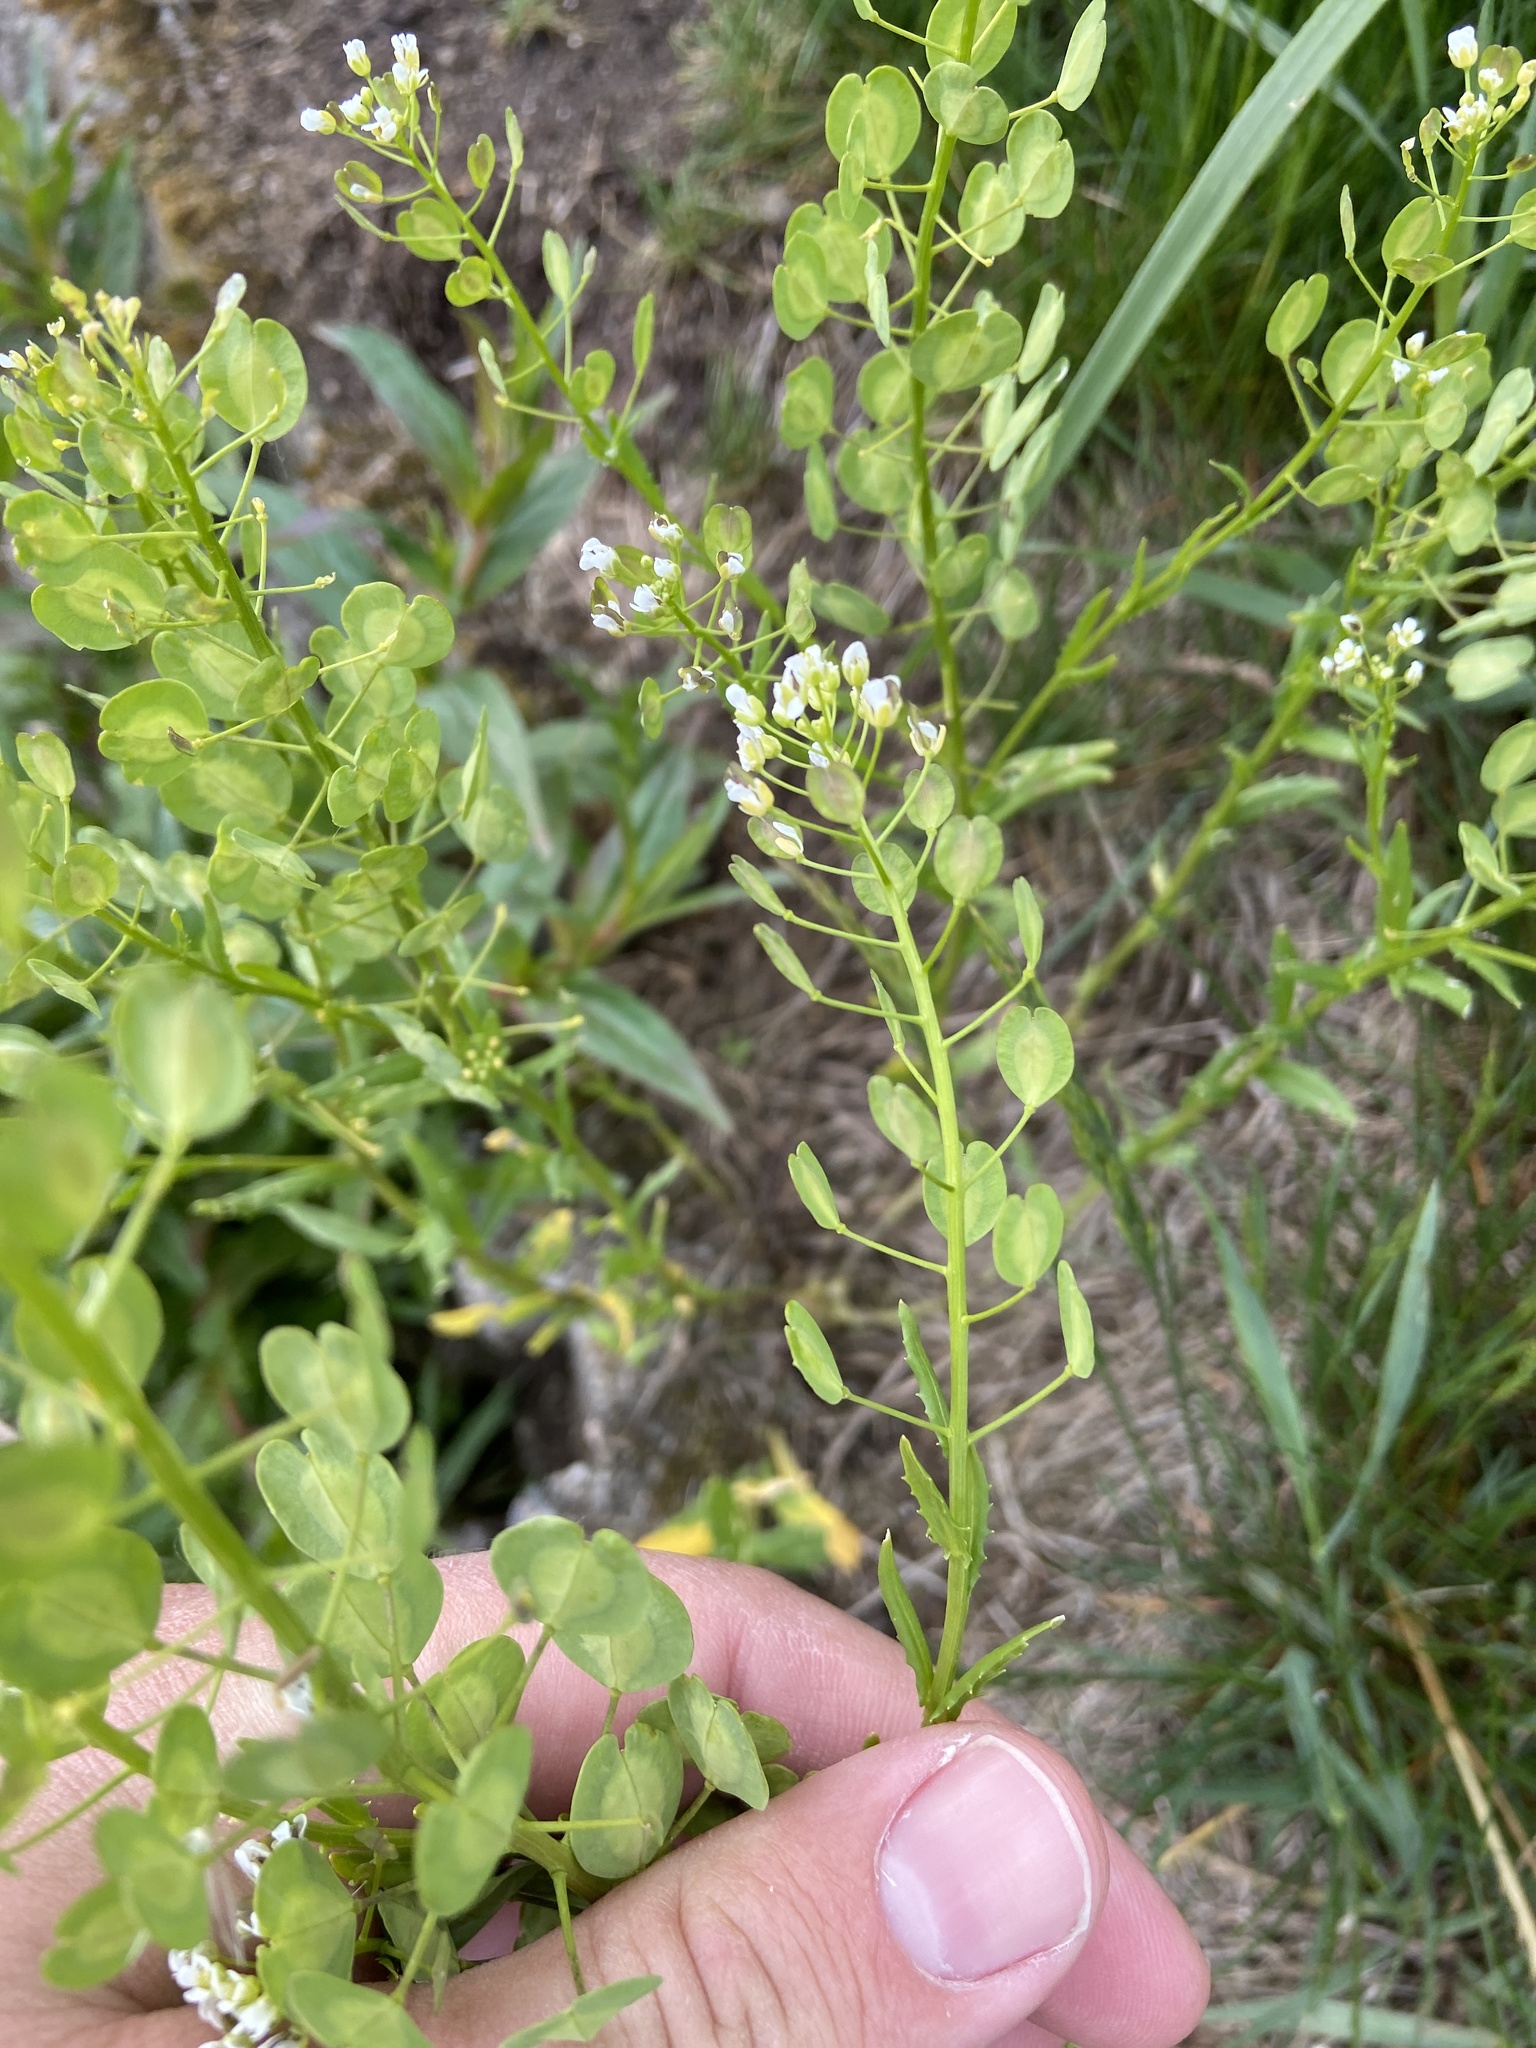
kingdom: Plantae
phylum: Tracheophyta
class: Magnoliopsida
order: Brassicales
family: Brassicaceae
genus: Thlaspi
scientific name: Thlaspi arvense
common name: Field pennycress
